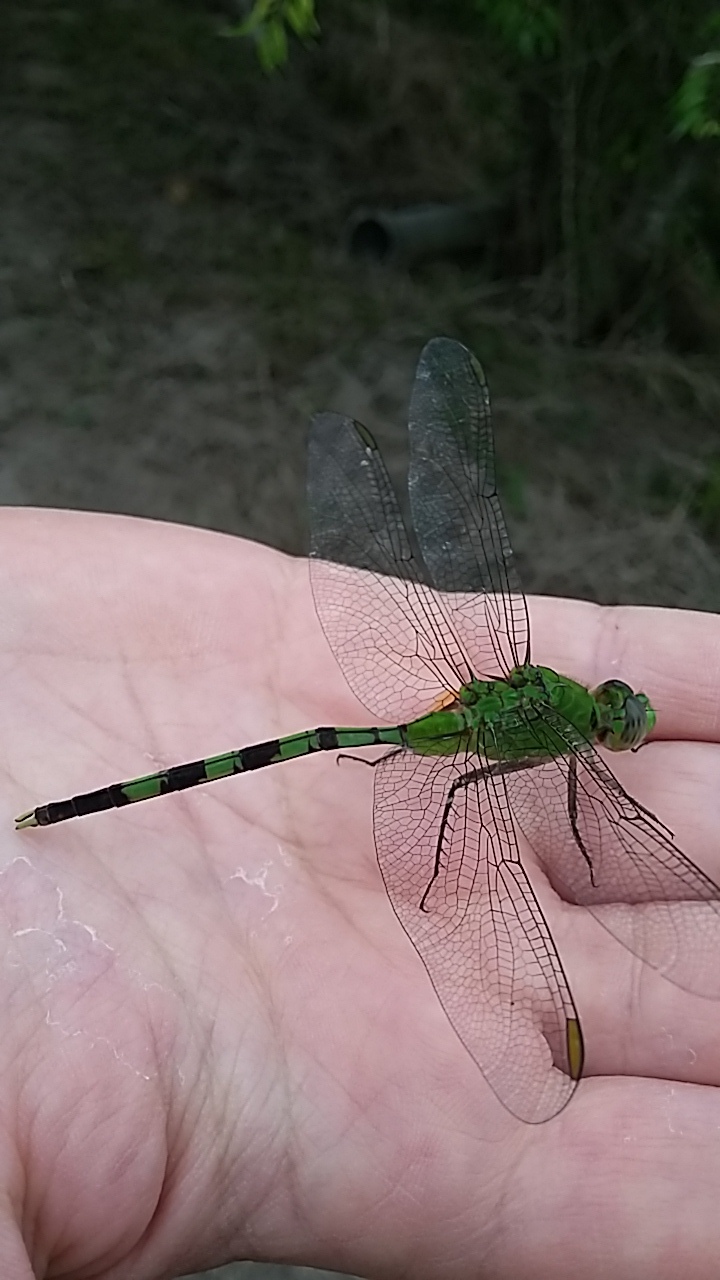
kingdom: Animalia
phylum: Arthropoda
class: Insecta
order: Odonata
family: Libellulidae
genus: Erythemis
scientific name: Erythemis vesiculosa
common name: Great pondhawk
